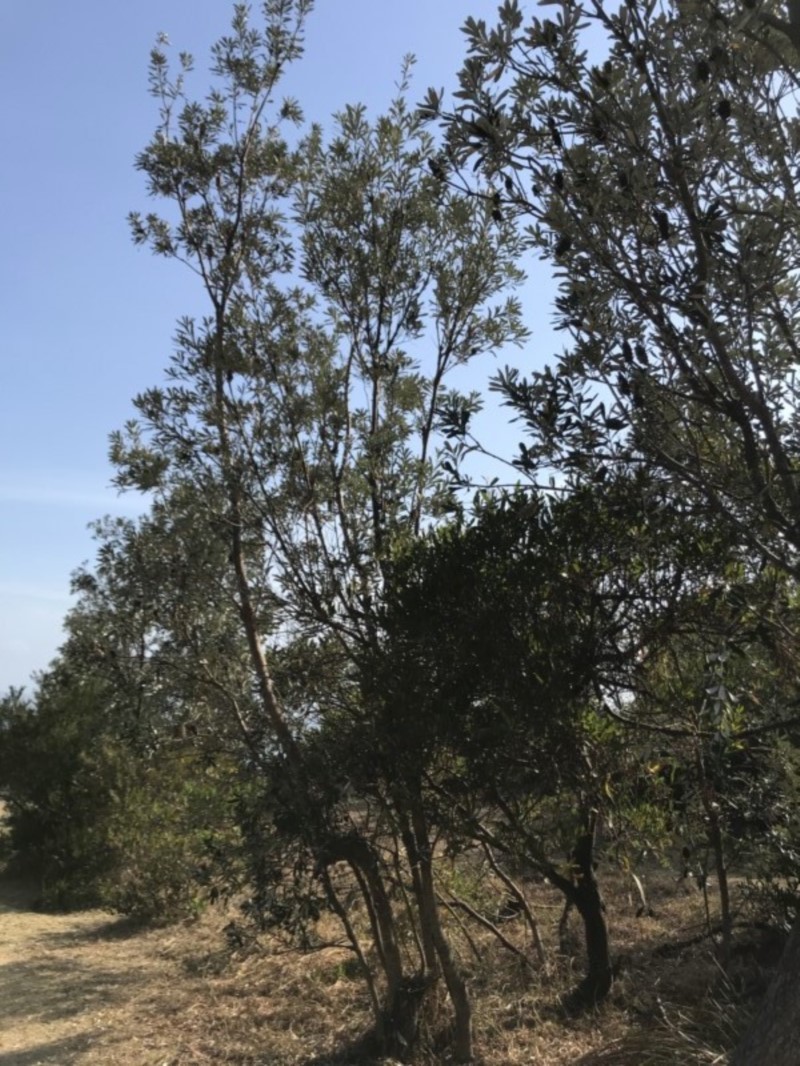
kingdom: Plantae
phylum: Tracheophyta
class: Magnoliopsida
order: Proteales
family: Proteaceae
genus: Banksia
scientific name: Banksia integrifolia
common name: White-honeysuckle
